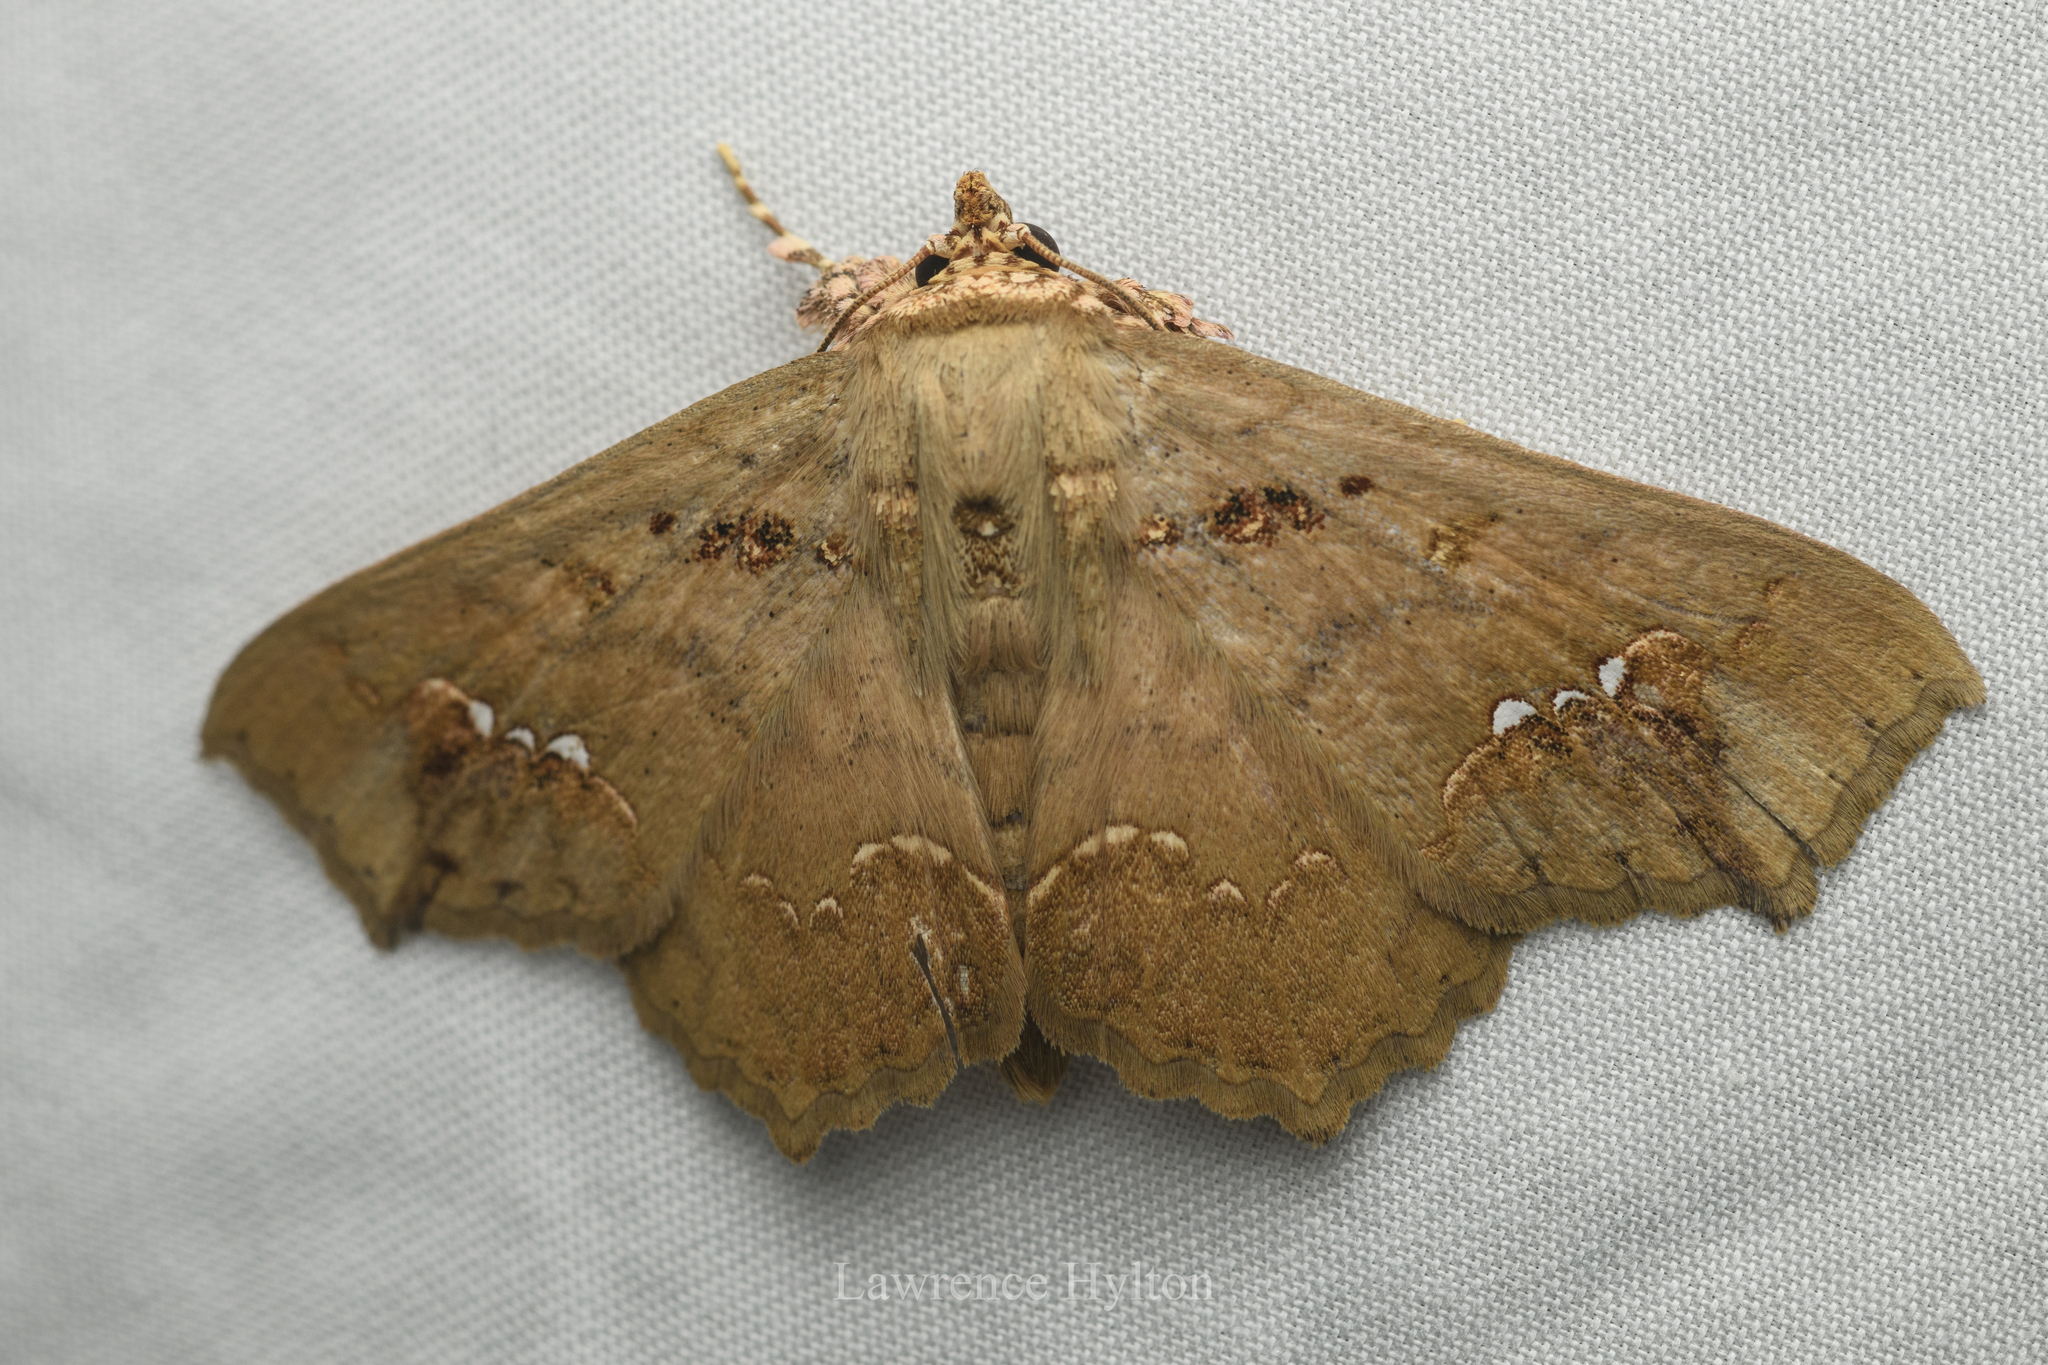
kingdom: Animalia
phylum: Arthropoda
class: Insecta
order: Lepidoptera
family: Erebidae
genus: Lopharthrum
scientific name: Lopharthrum comprimens
